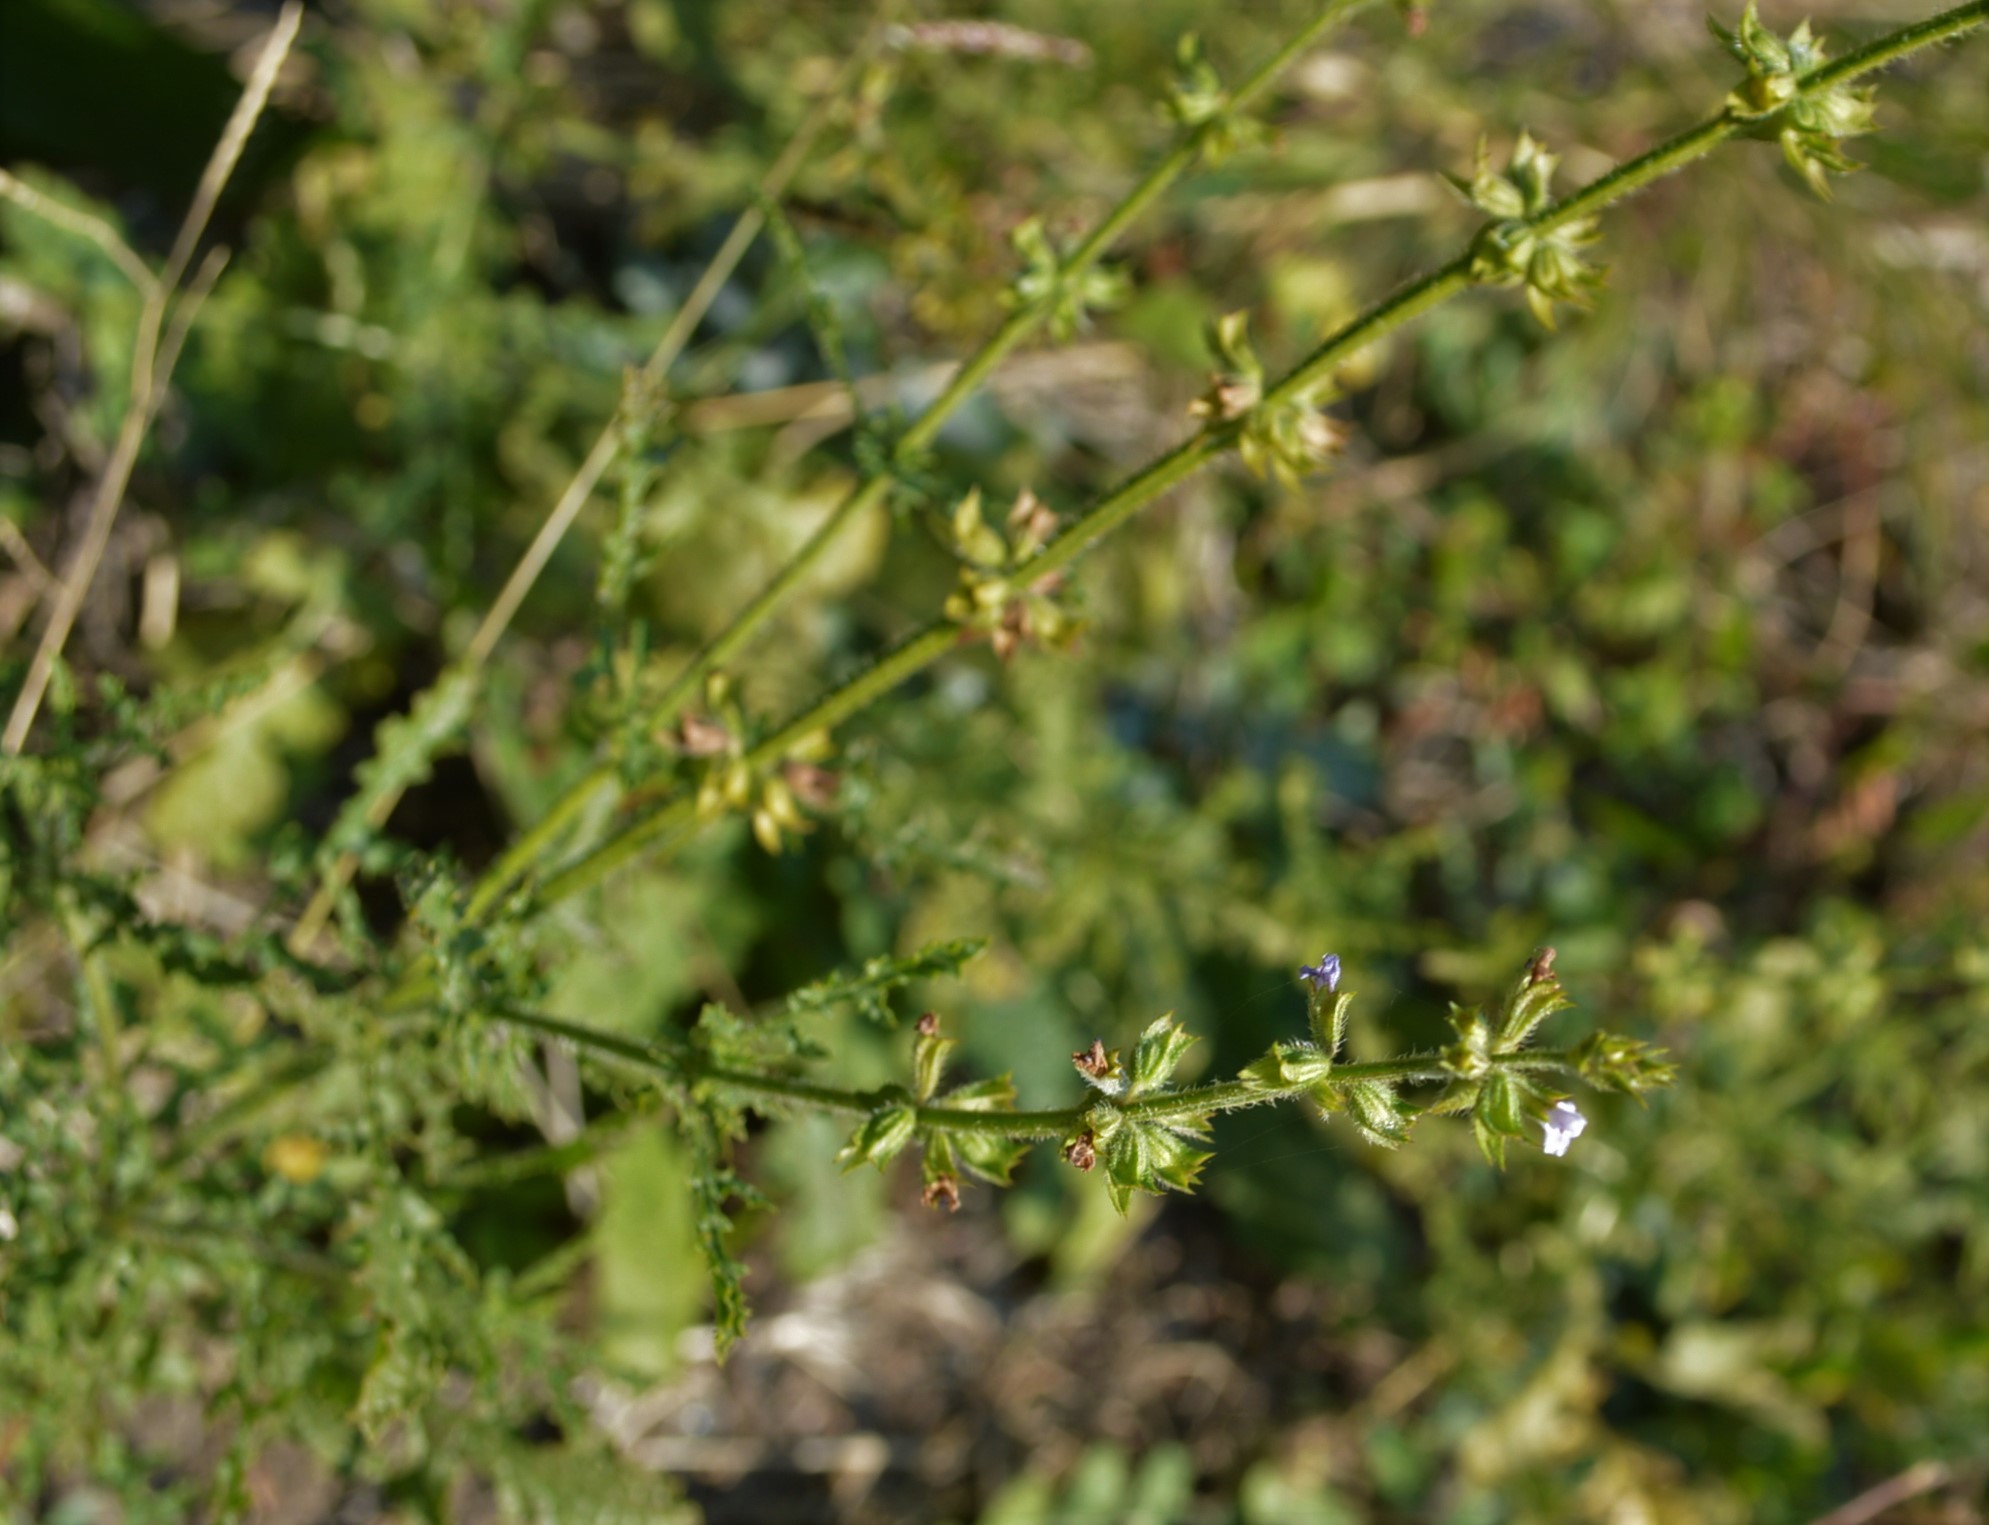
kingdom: Plantae
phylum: Tracheophyta
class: Magnoliopsida
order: Lamiales
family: Lamiaceae
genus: Salvia
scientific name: Salvia stenophylla
